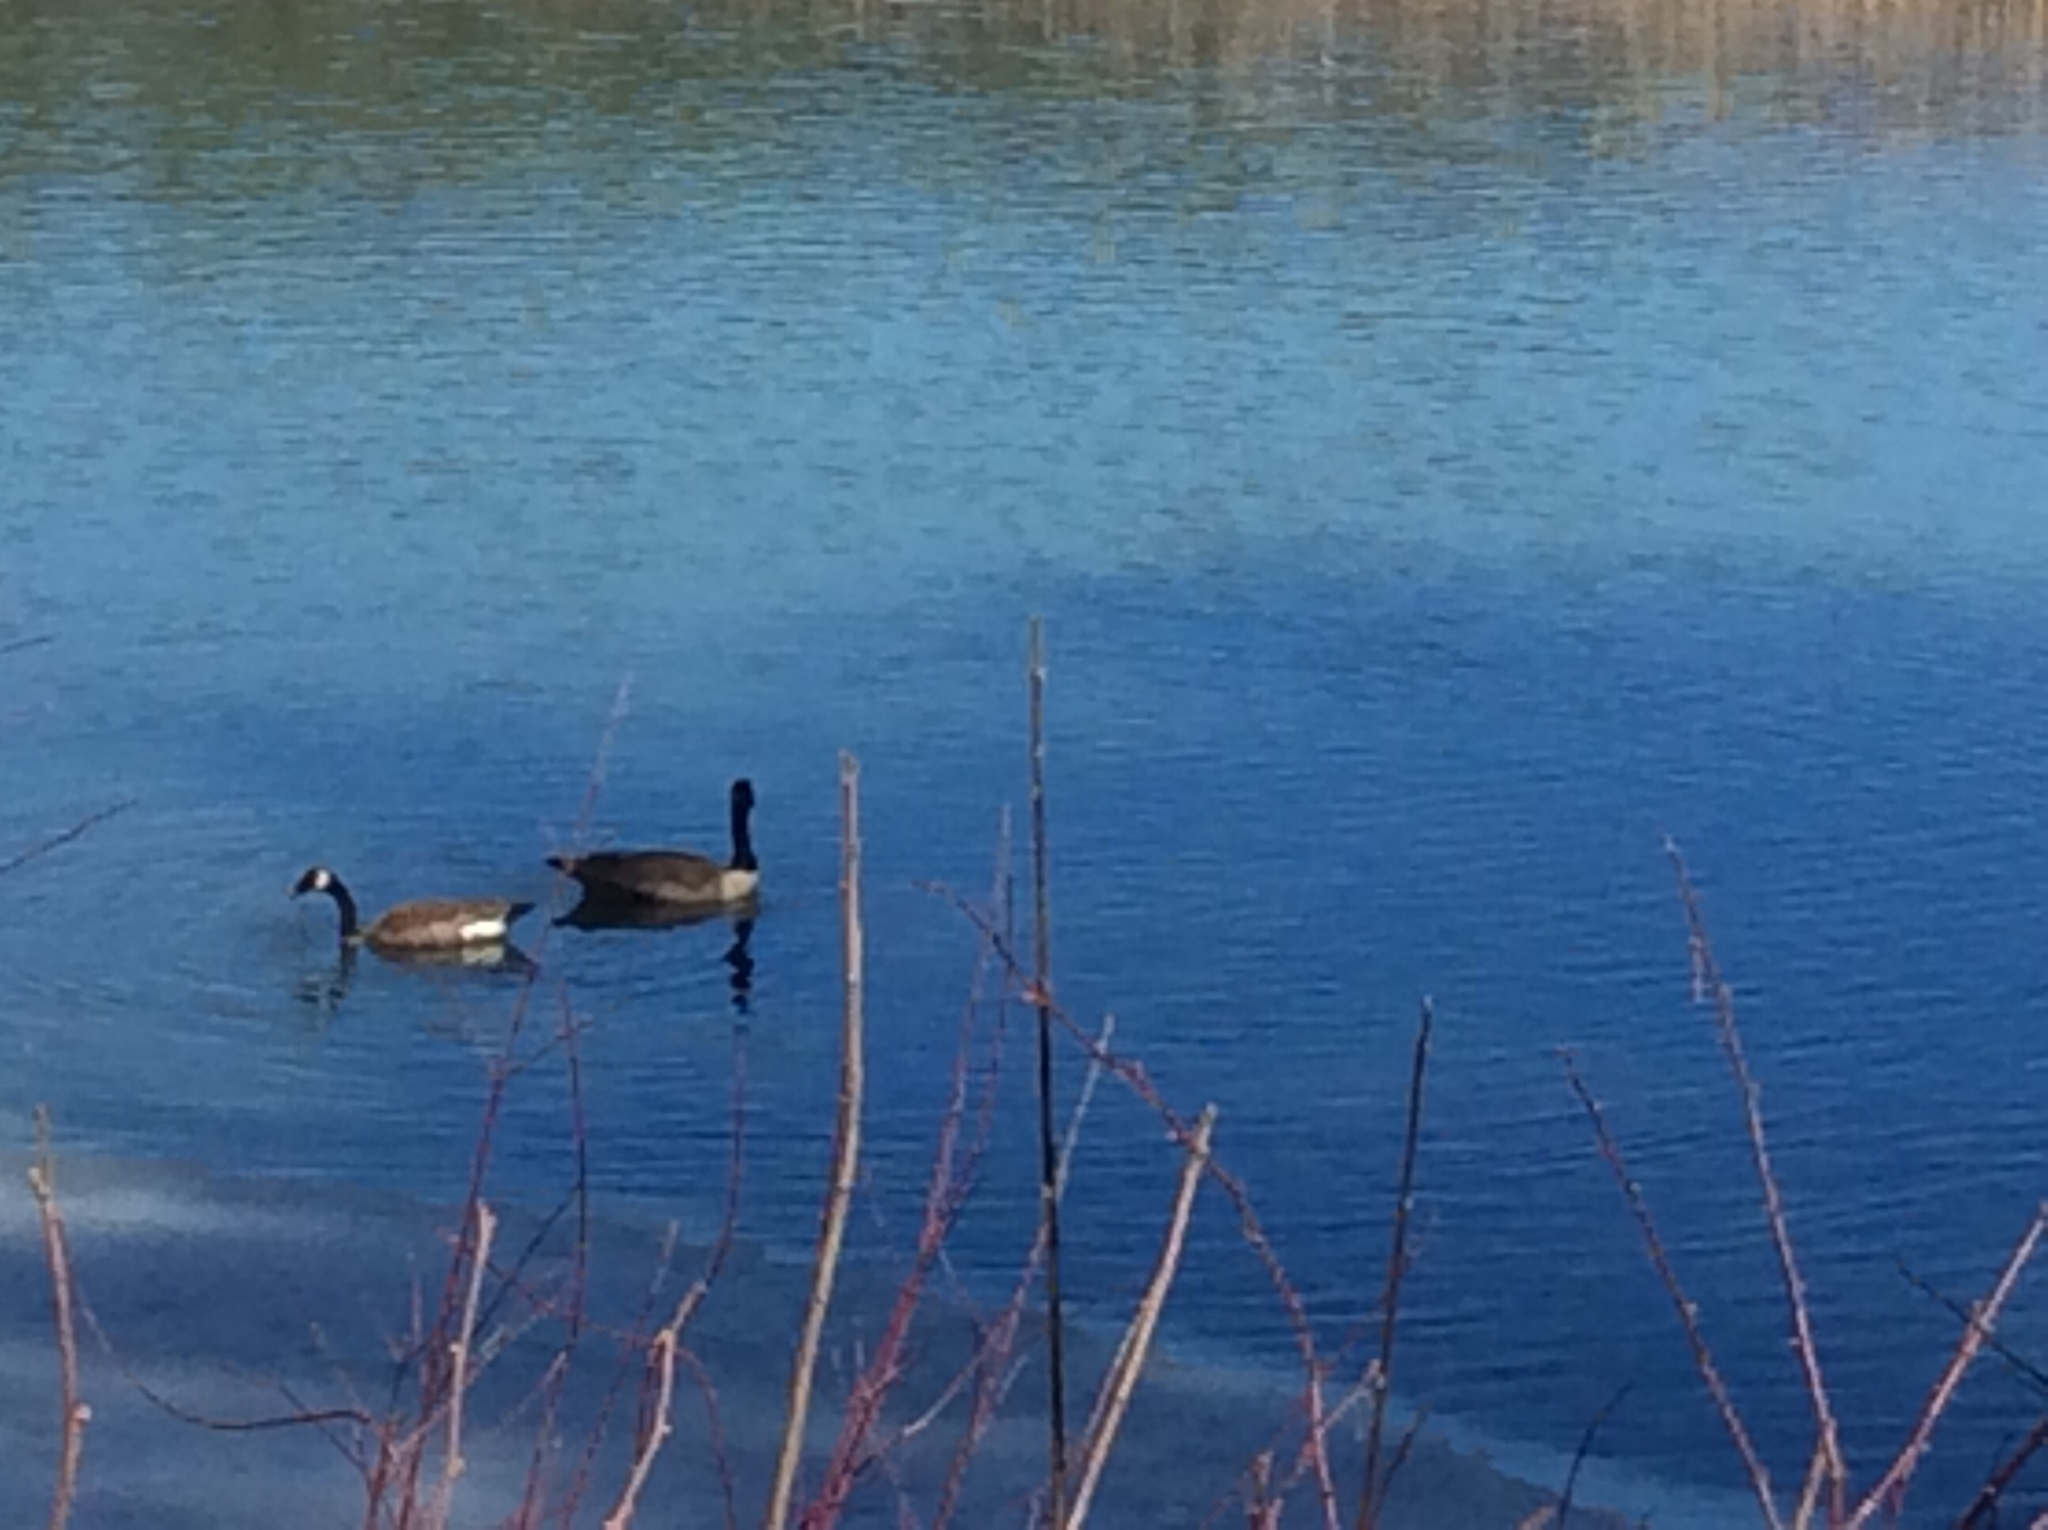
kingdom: Animalia
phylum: Chordata
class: Aves
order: Anseriformes
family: Anatidae
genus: Branta
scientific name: Branta canadensis
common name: Canada goose
